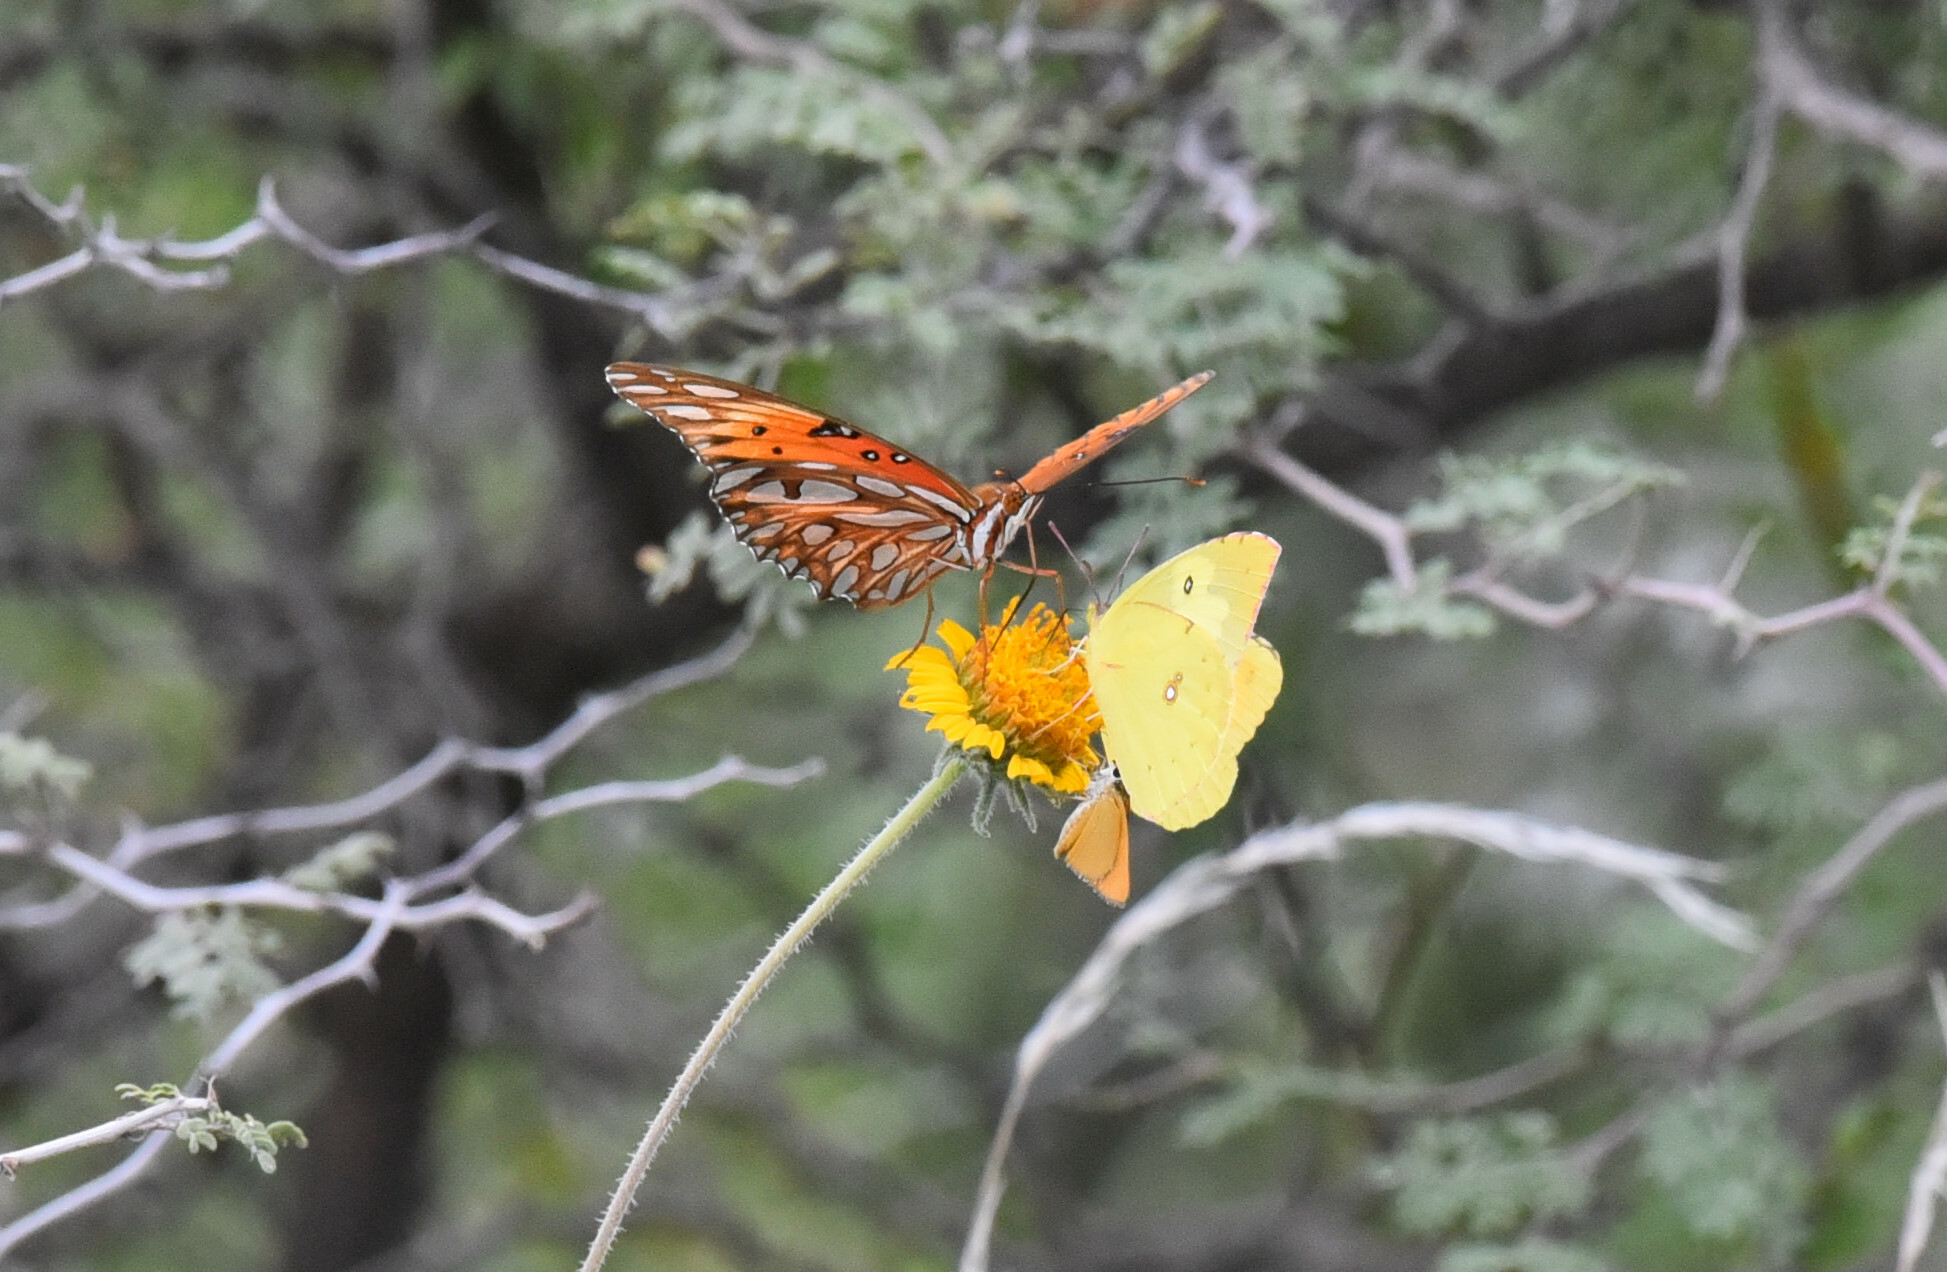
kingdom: Animalia
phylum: Arthropoda
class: Insecta
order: Lepidoptera
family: Pieridae
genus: Zerene
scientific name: Zerene cesonia
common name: Southern dogface
